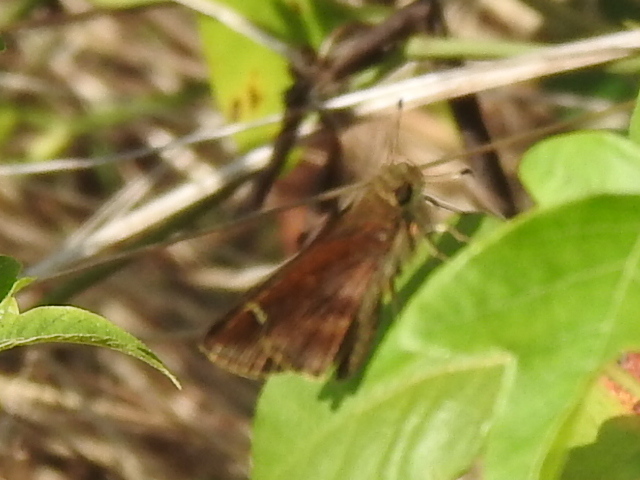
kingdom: Animalia
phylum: Arthropoda
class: Insecta
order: Lepidoptera
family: Hesperiidae
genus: Lerema
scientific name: Lerema accius
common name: Clouded skipper
